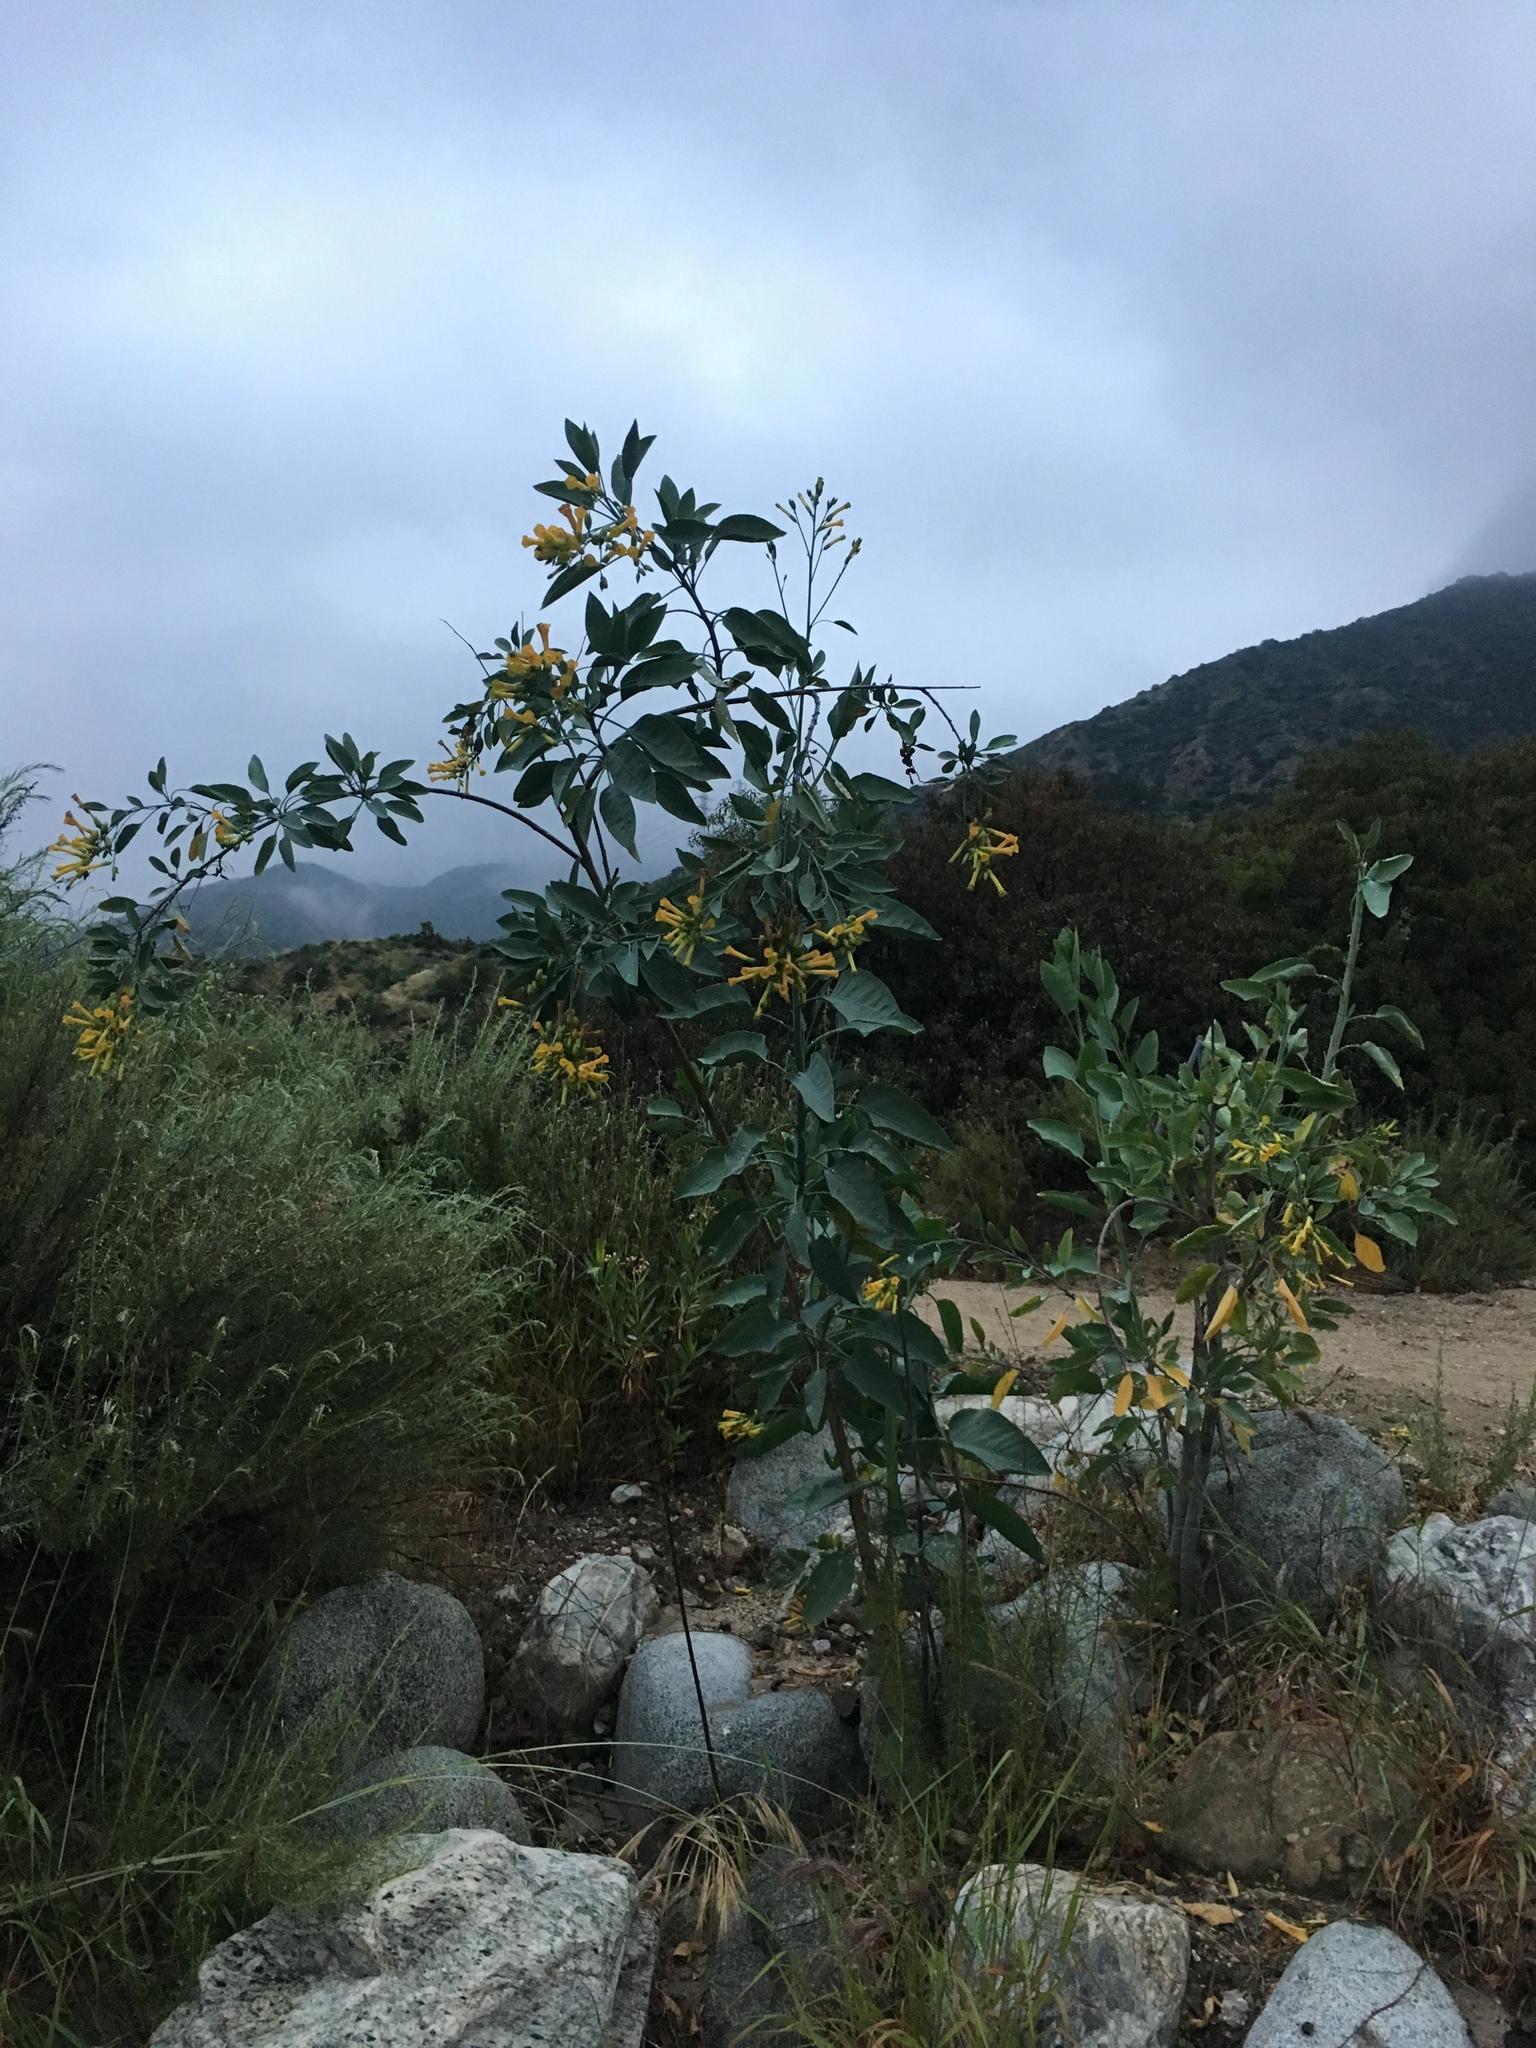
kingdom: Plantae
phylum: Tracheophyta
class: Magnoliopsida
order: Solanales
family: Solanaceae
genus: Nicotiana
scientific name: Nicotiana glauca
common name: Tree tobacco
